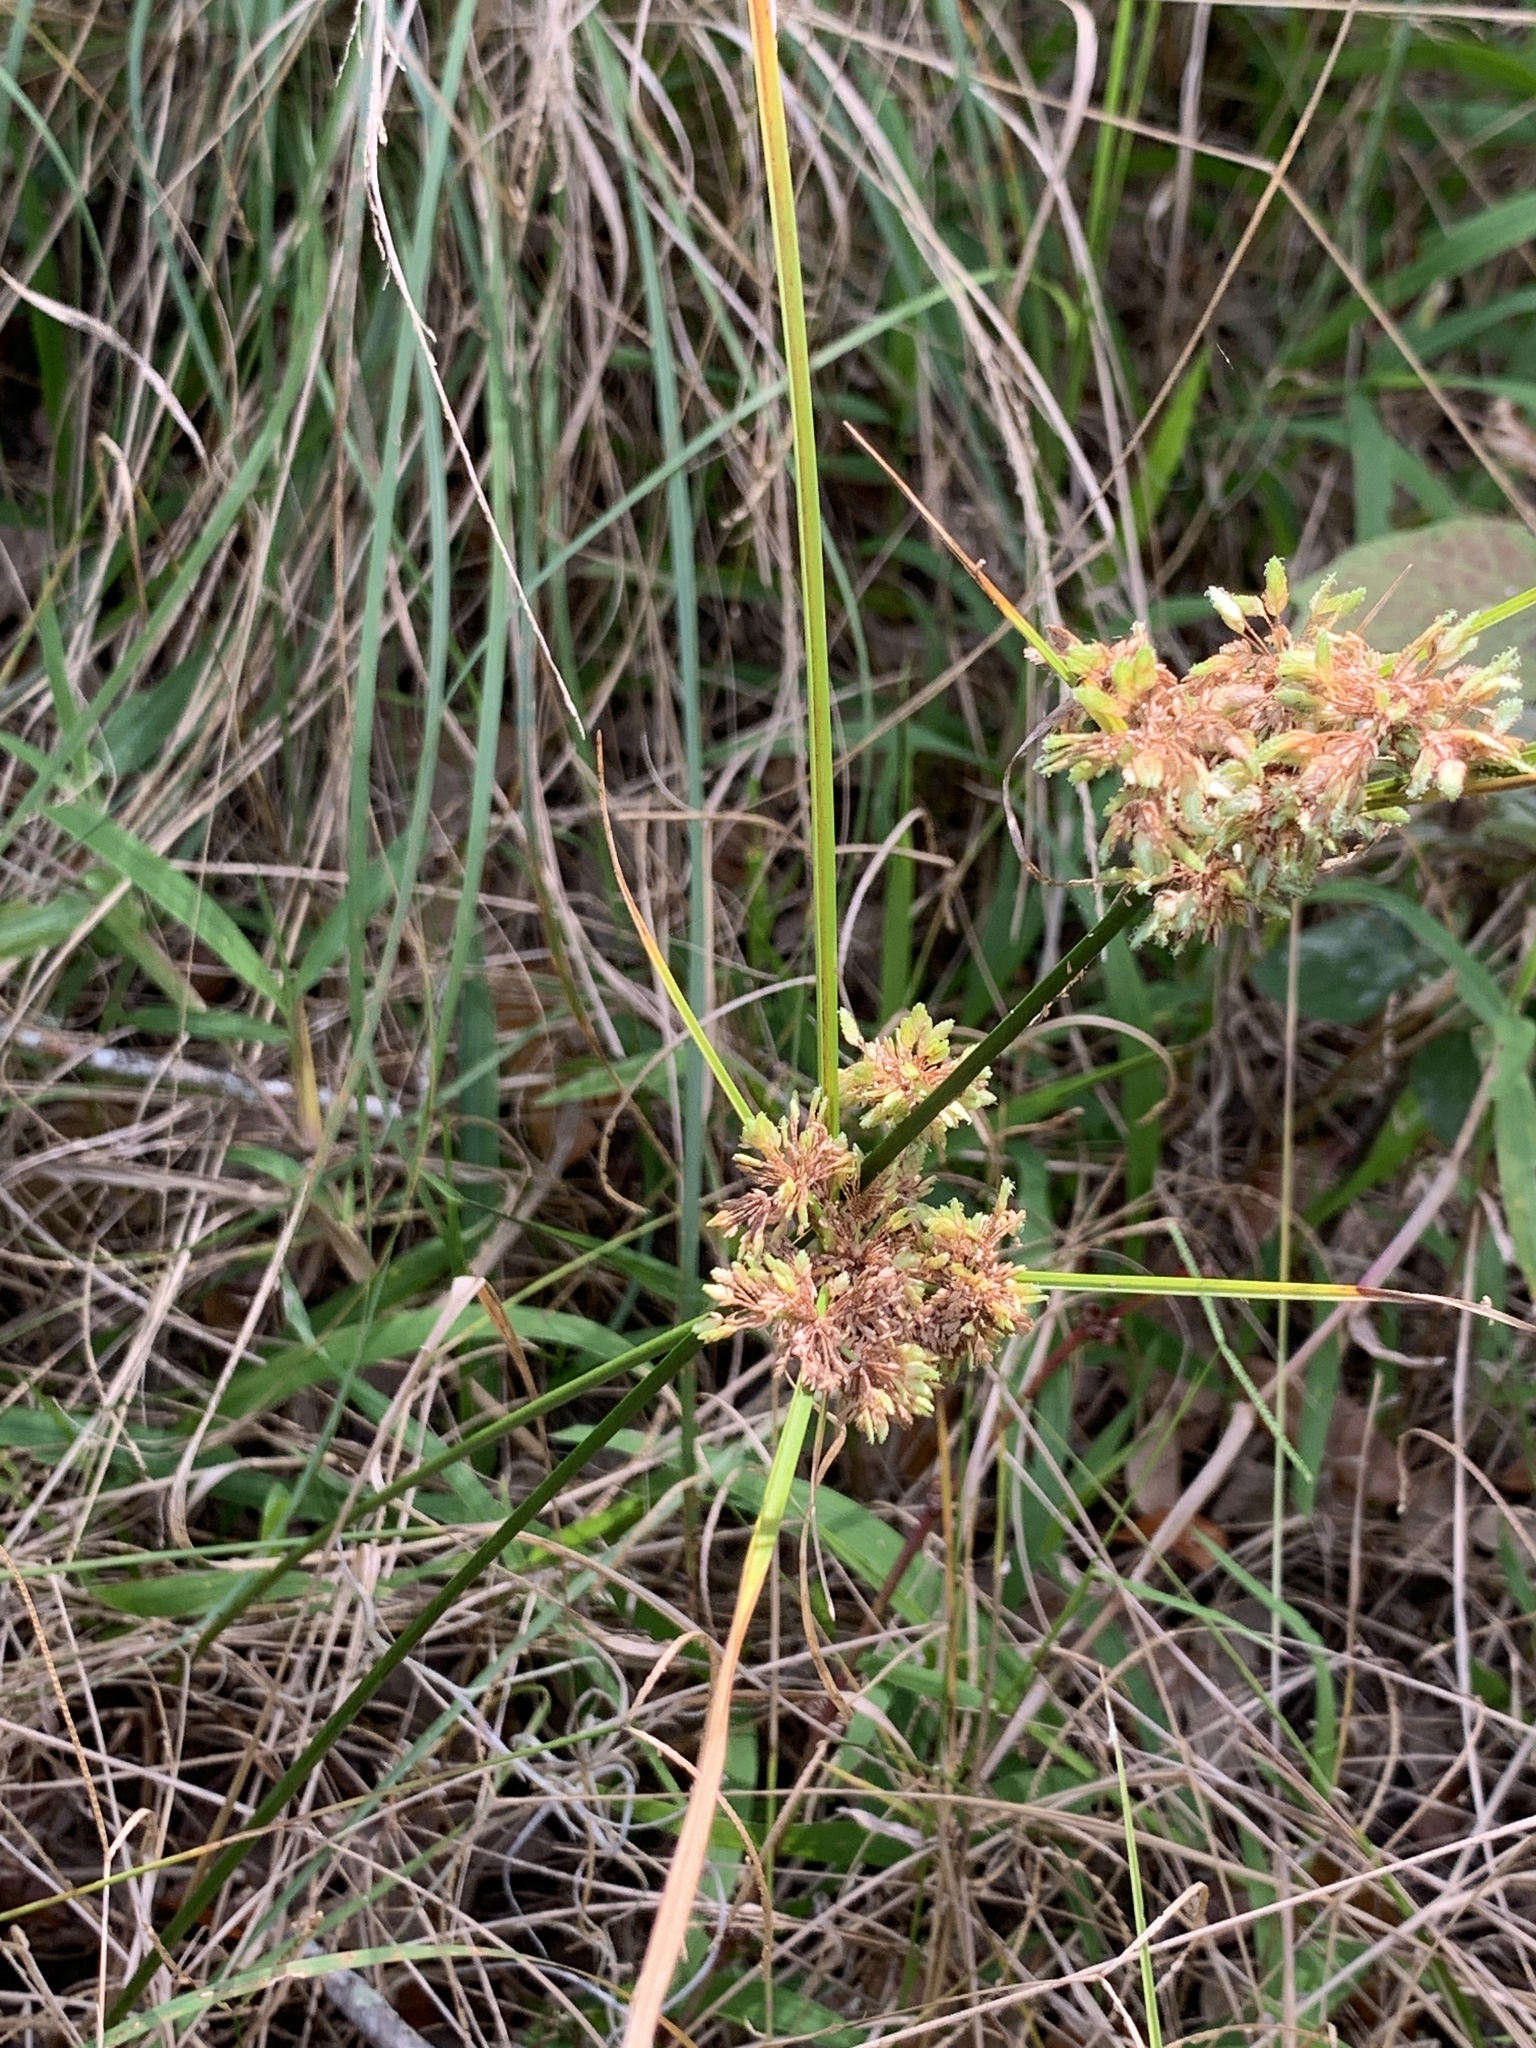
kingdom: Plantae
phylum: Tracheophyta
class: Liliopsida
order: Poales
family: Cyperaceae
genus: Cyperus
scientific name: Cyperus surinamensis
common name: Tropical flat sedge
